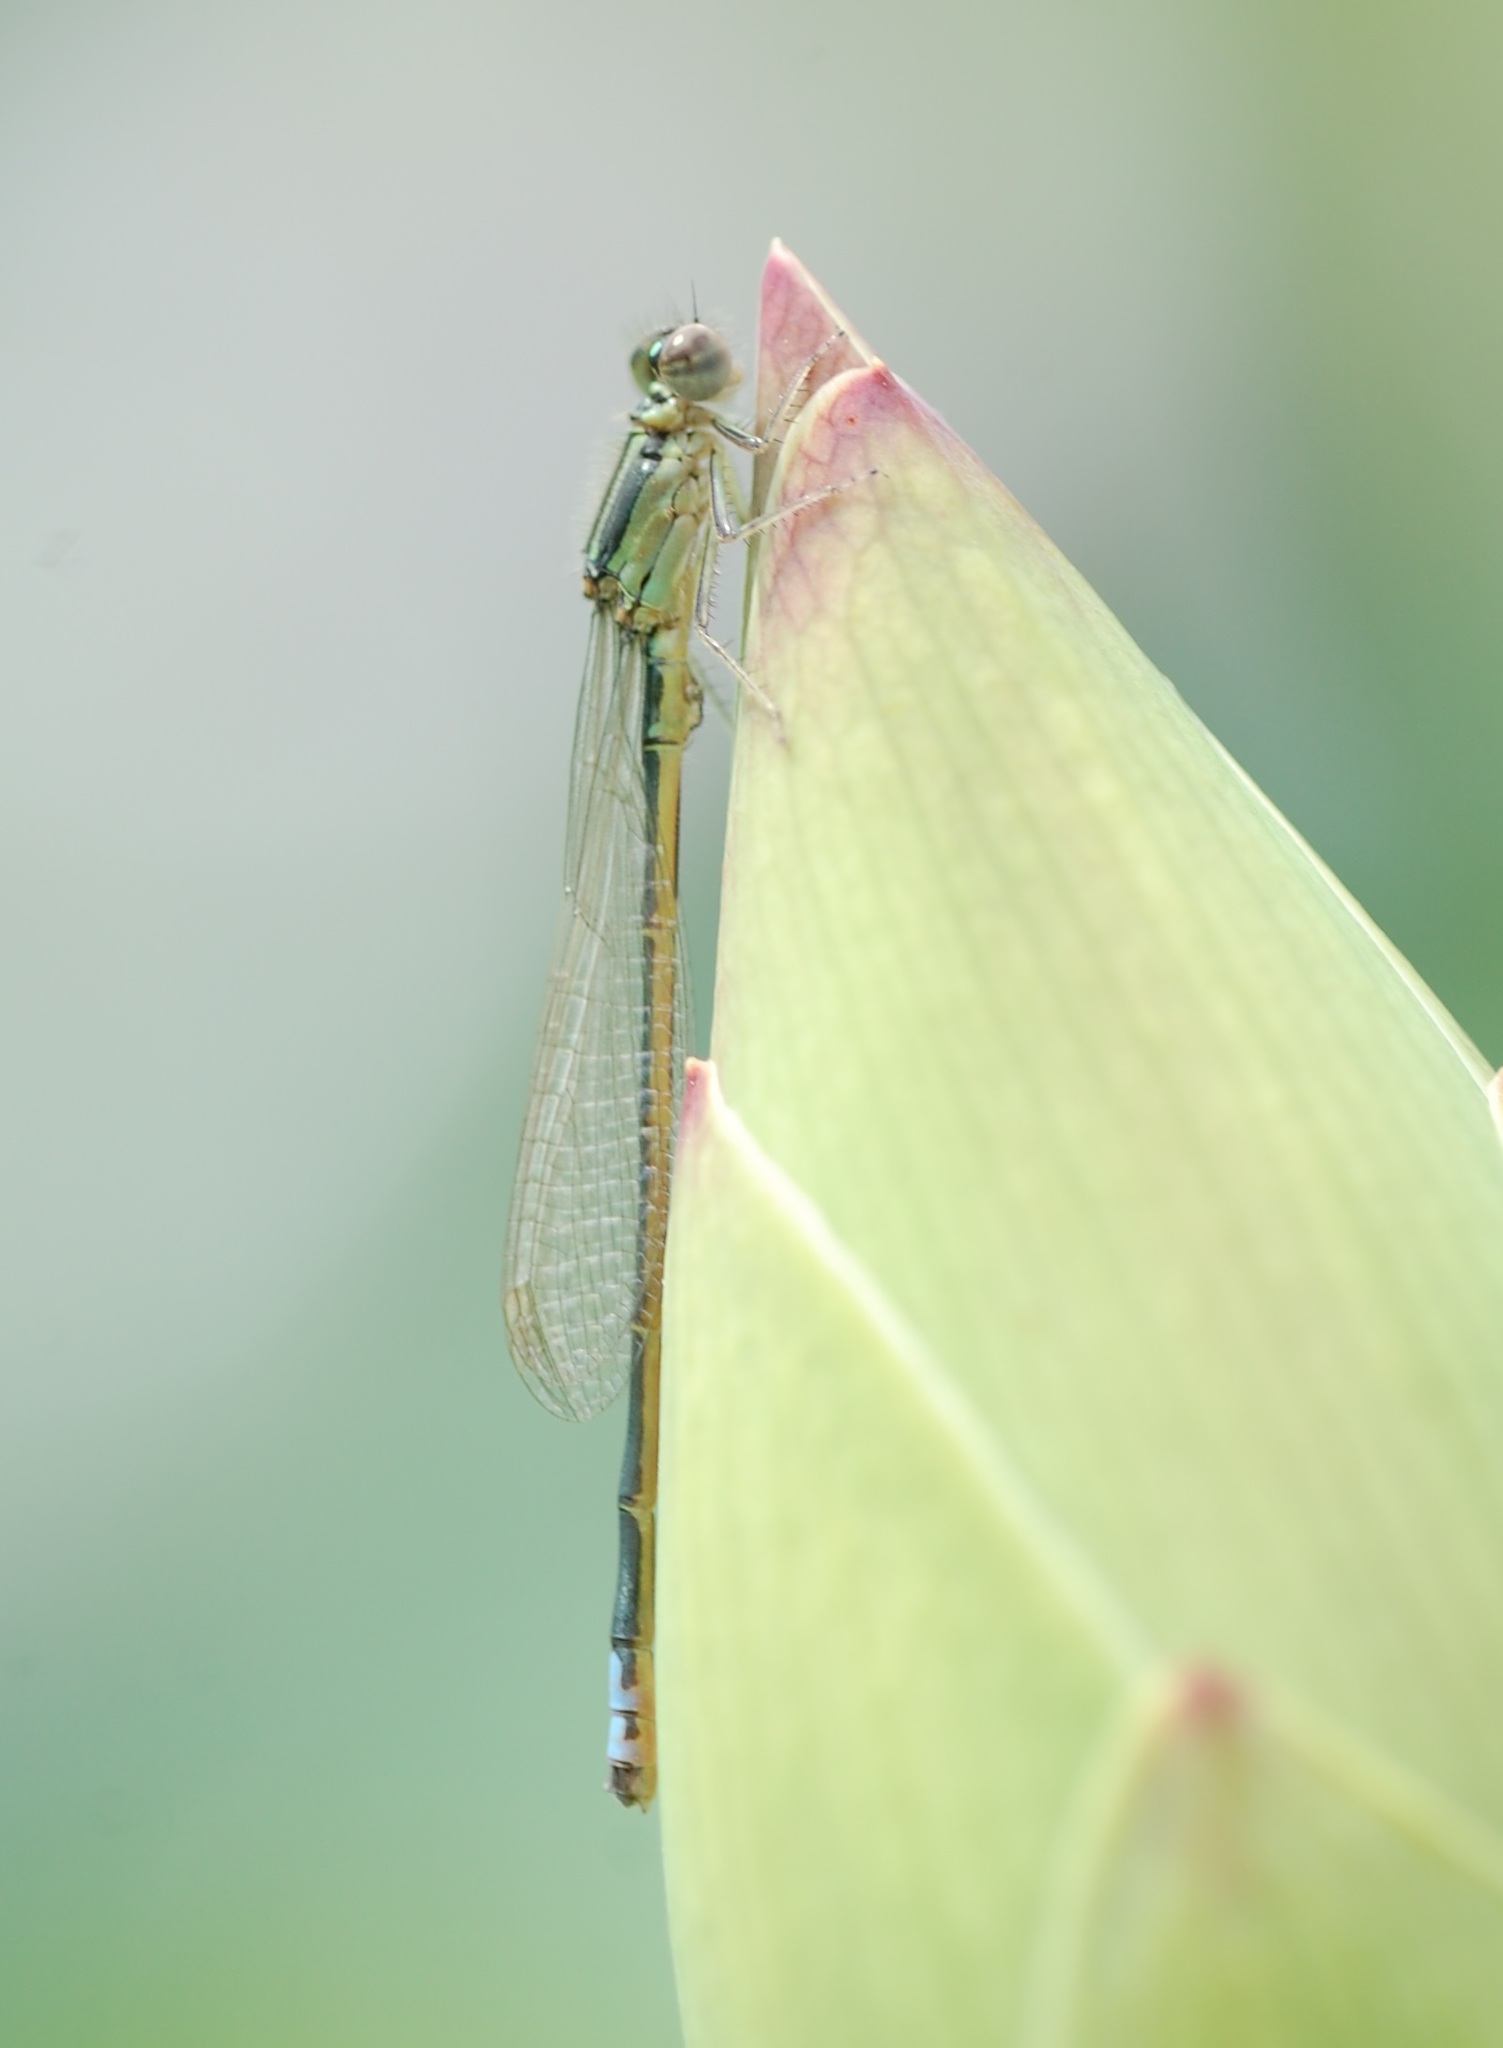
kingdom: Animalia
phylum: Arthropoda
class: Insecta
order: Odonata
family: Coenagrionidae
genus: Ischnura
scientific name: Ischnura verticalis
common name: Eastern forktail
